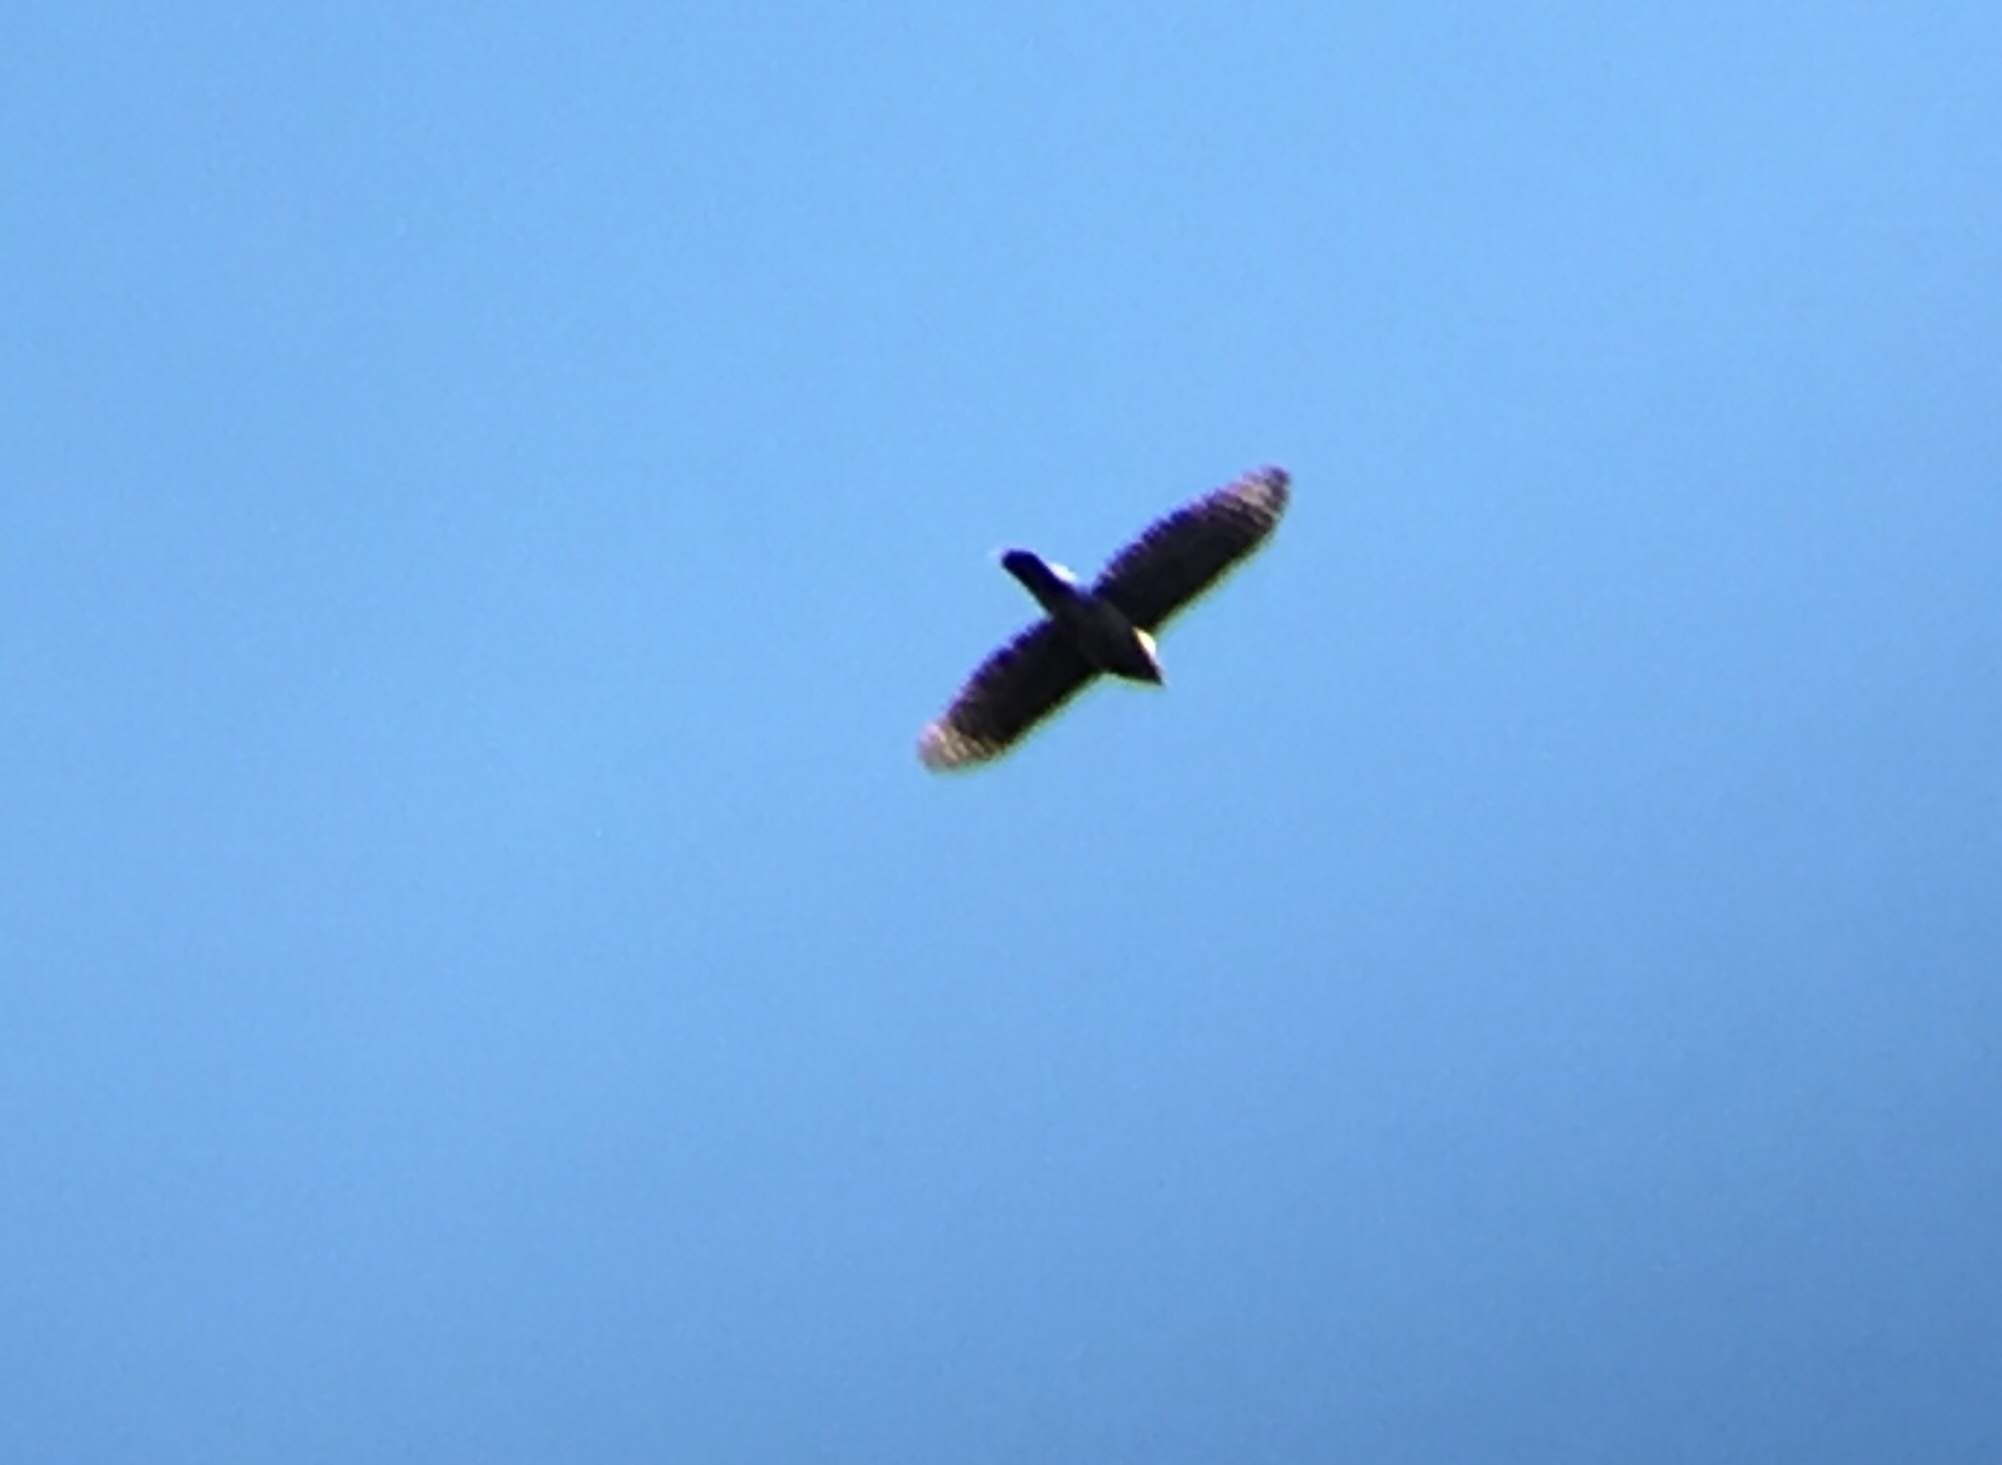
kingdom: Animalia
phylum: Chordata
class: Aves
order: Accipitriformes
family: Accipitridae
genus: Accipiter
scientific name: Accipiter cooperii
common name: Cooper's hawk
